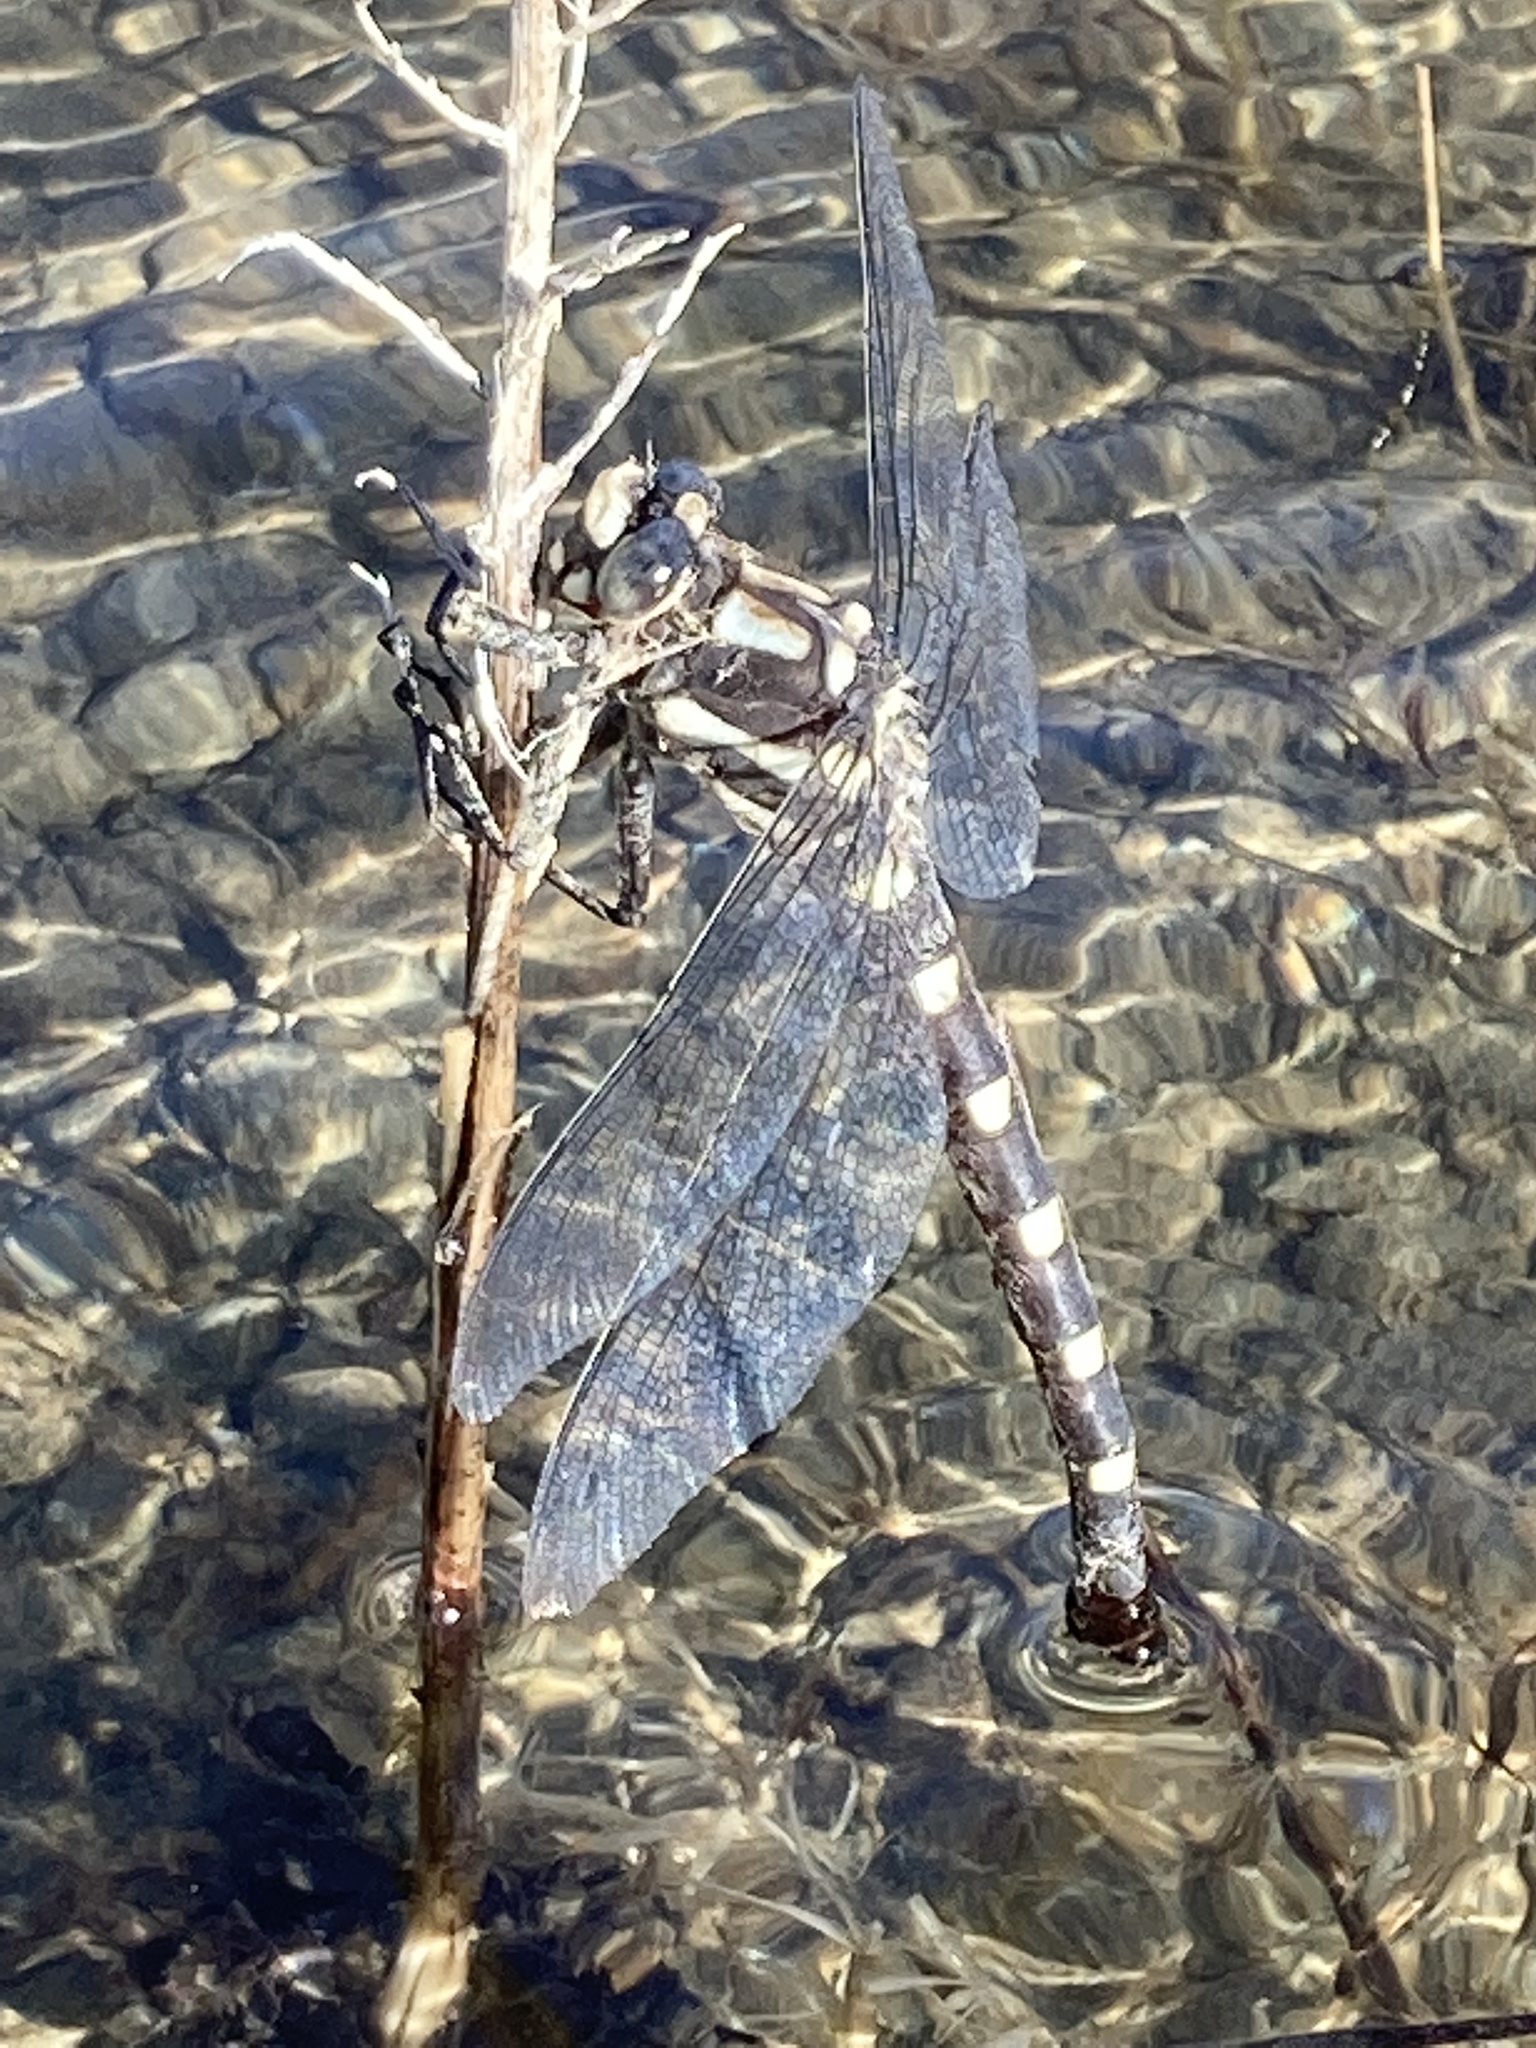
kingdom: Animalia
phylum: Arthropoda
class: Insecta
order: Odonata
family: Petaluridae
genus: Uropetala
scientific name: Uropetala chiltoni
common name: Mountain giant dragonfly
